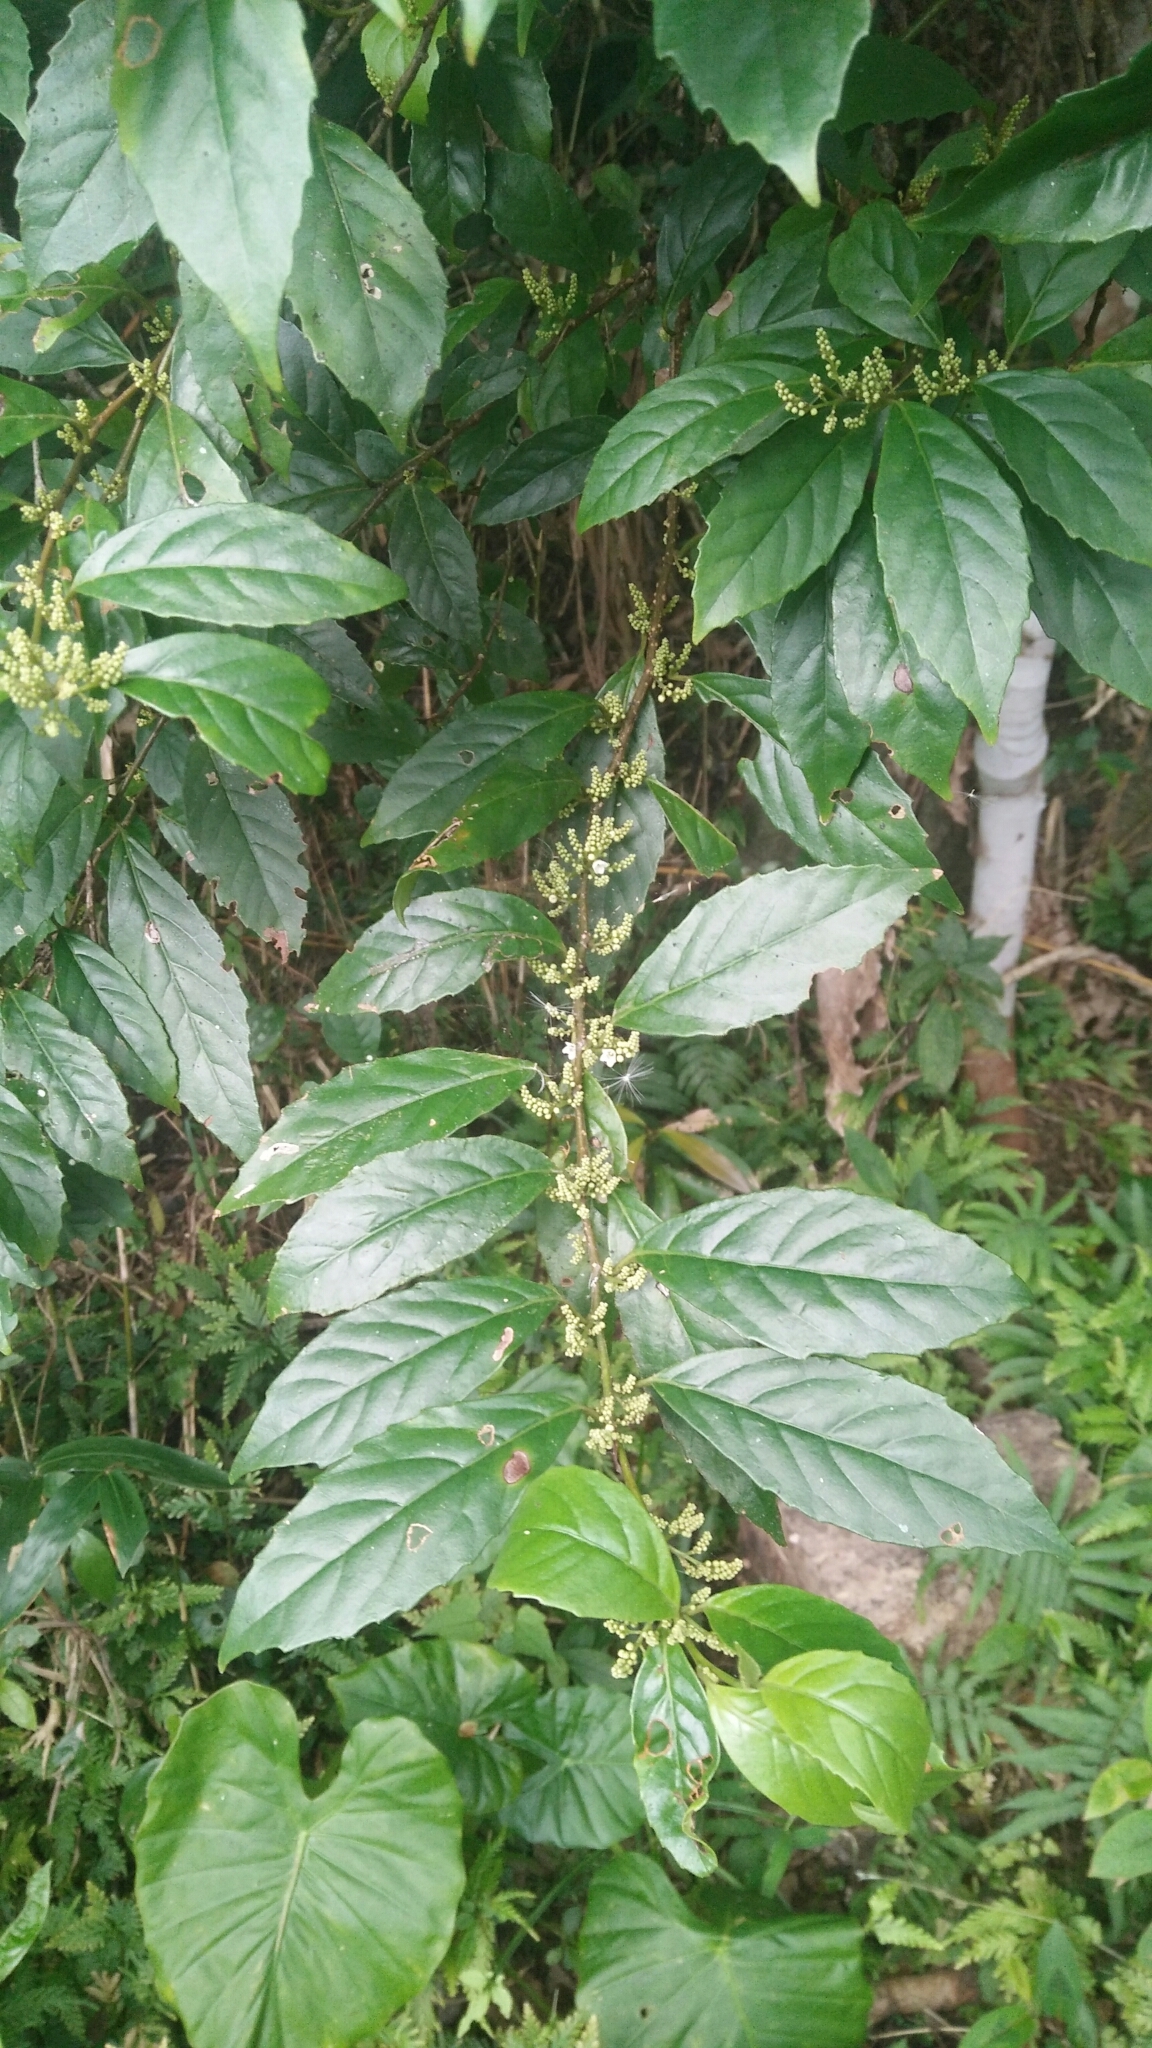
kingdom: Plantae
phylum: Tracheophyta
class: Magnoliopsida
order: Ericales
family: Primulaceae
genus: Maesa
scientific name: Maesa perlaria
